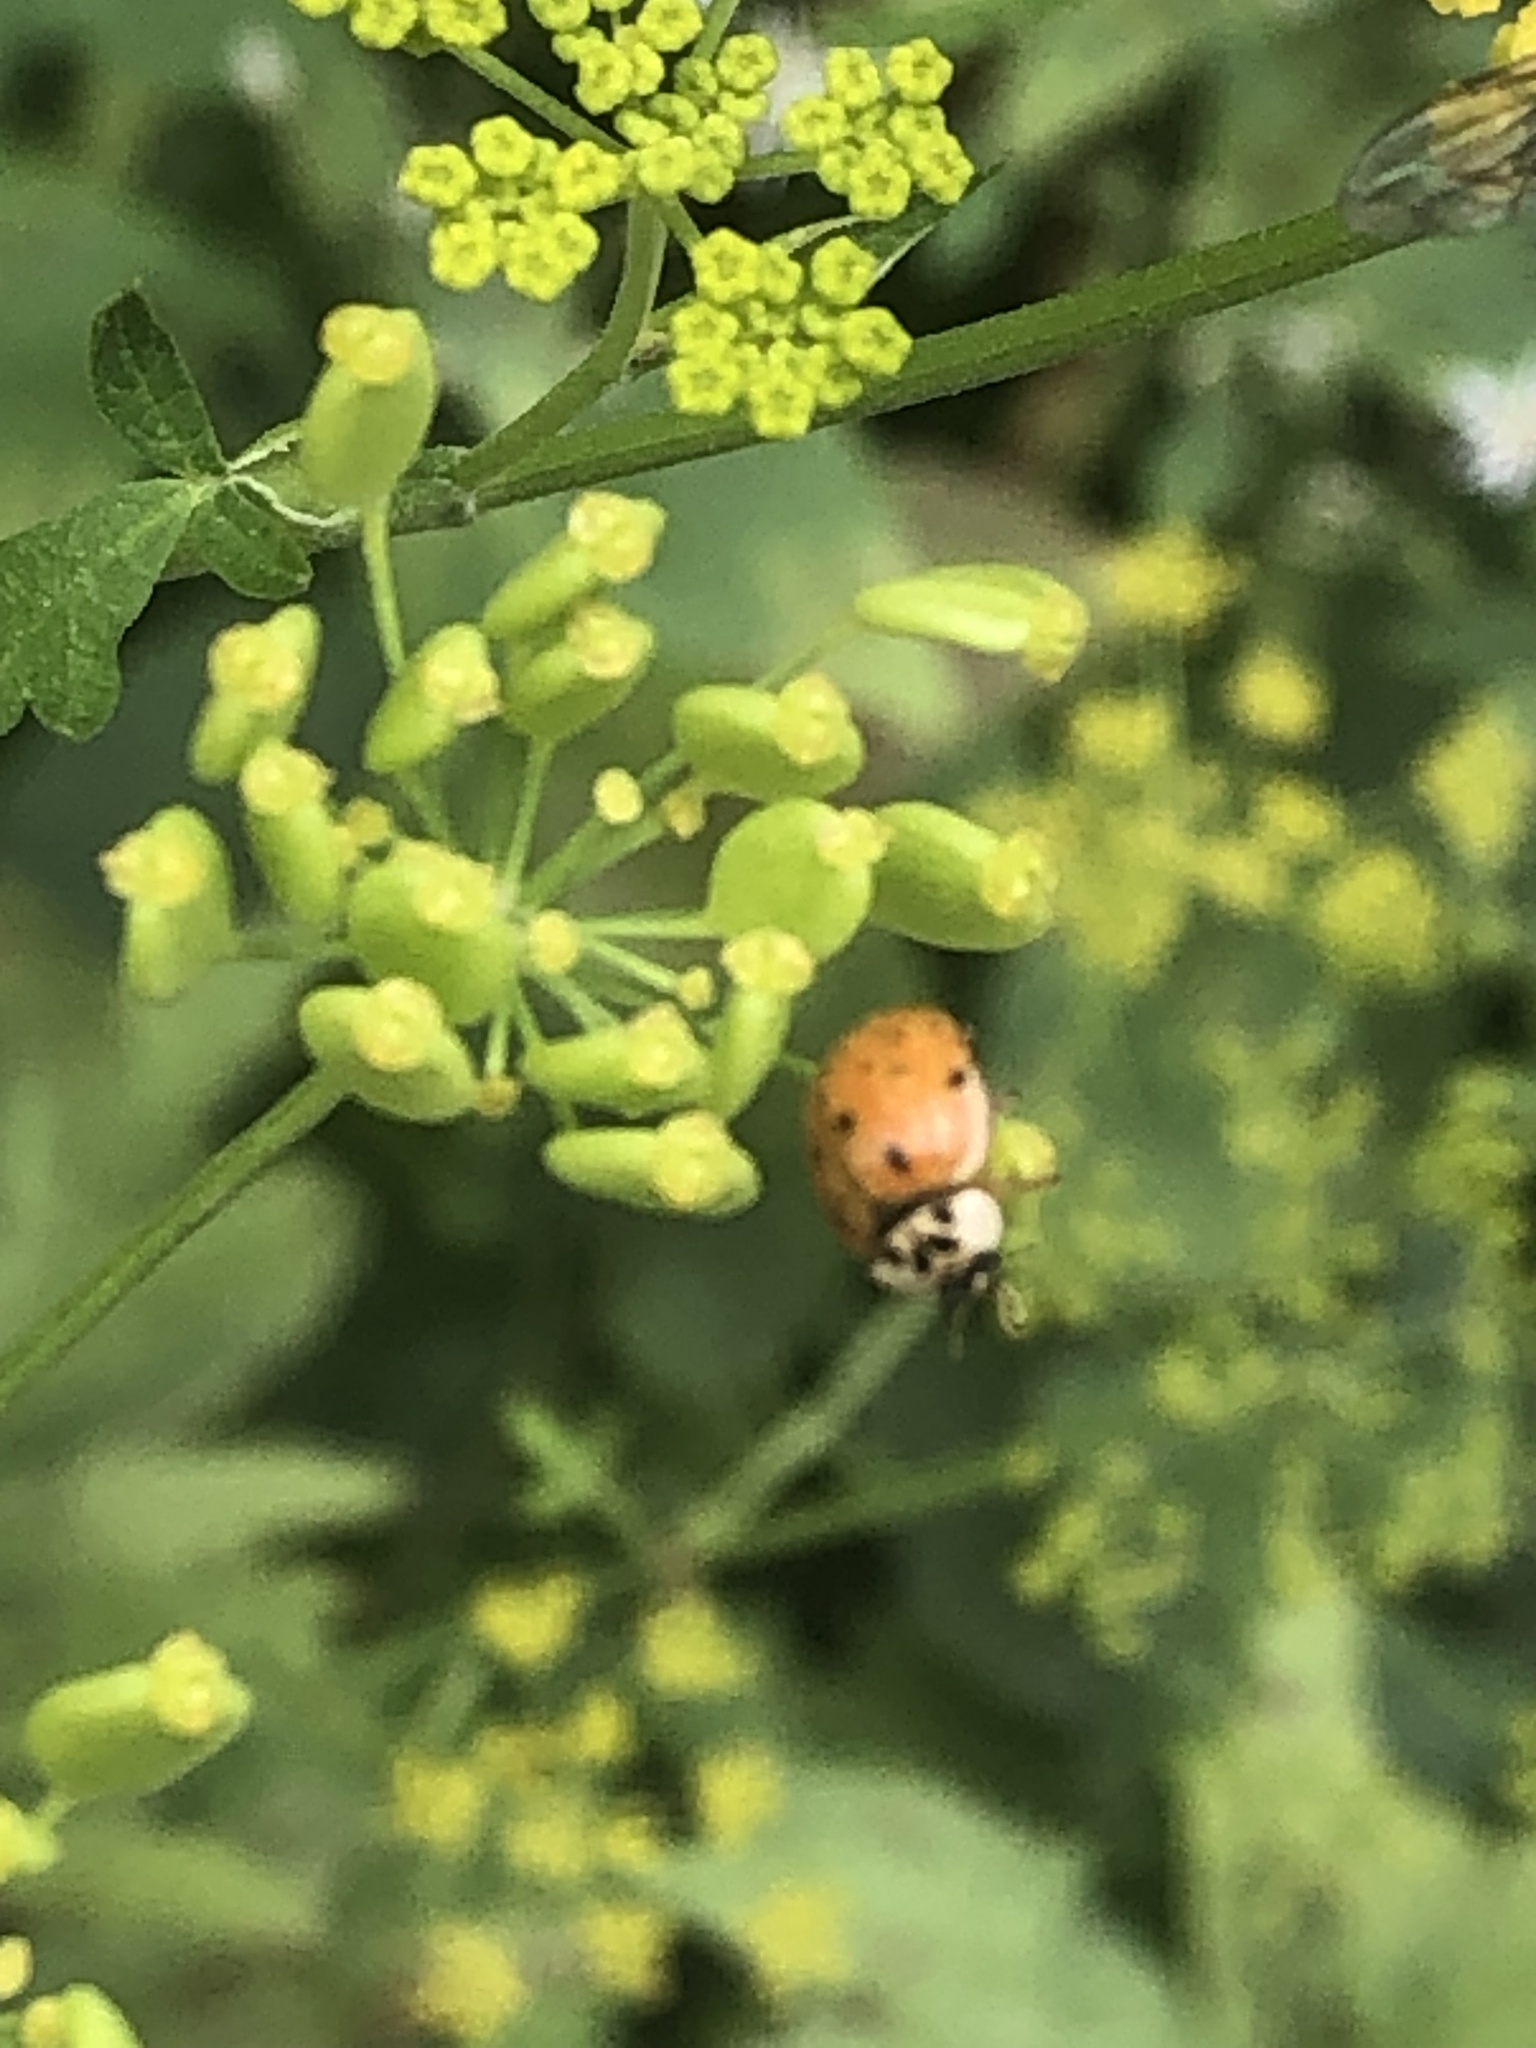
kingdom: Animalia
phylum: Arthropoda
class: Insecta
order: Coleoptera
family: Coccinellidae
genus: Harmonia
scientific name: Harmonia axyridis
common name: Harlequin ladybird
